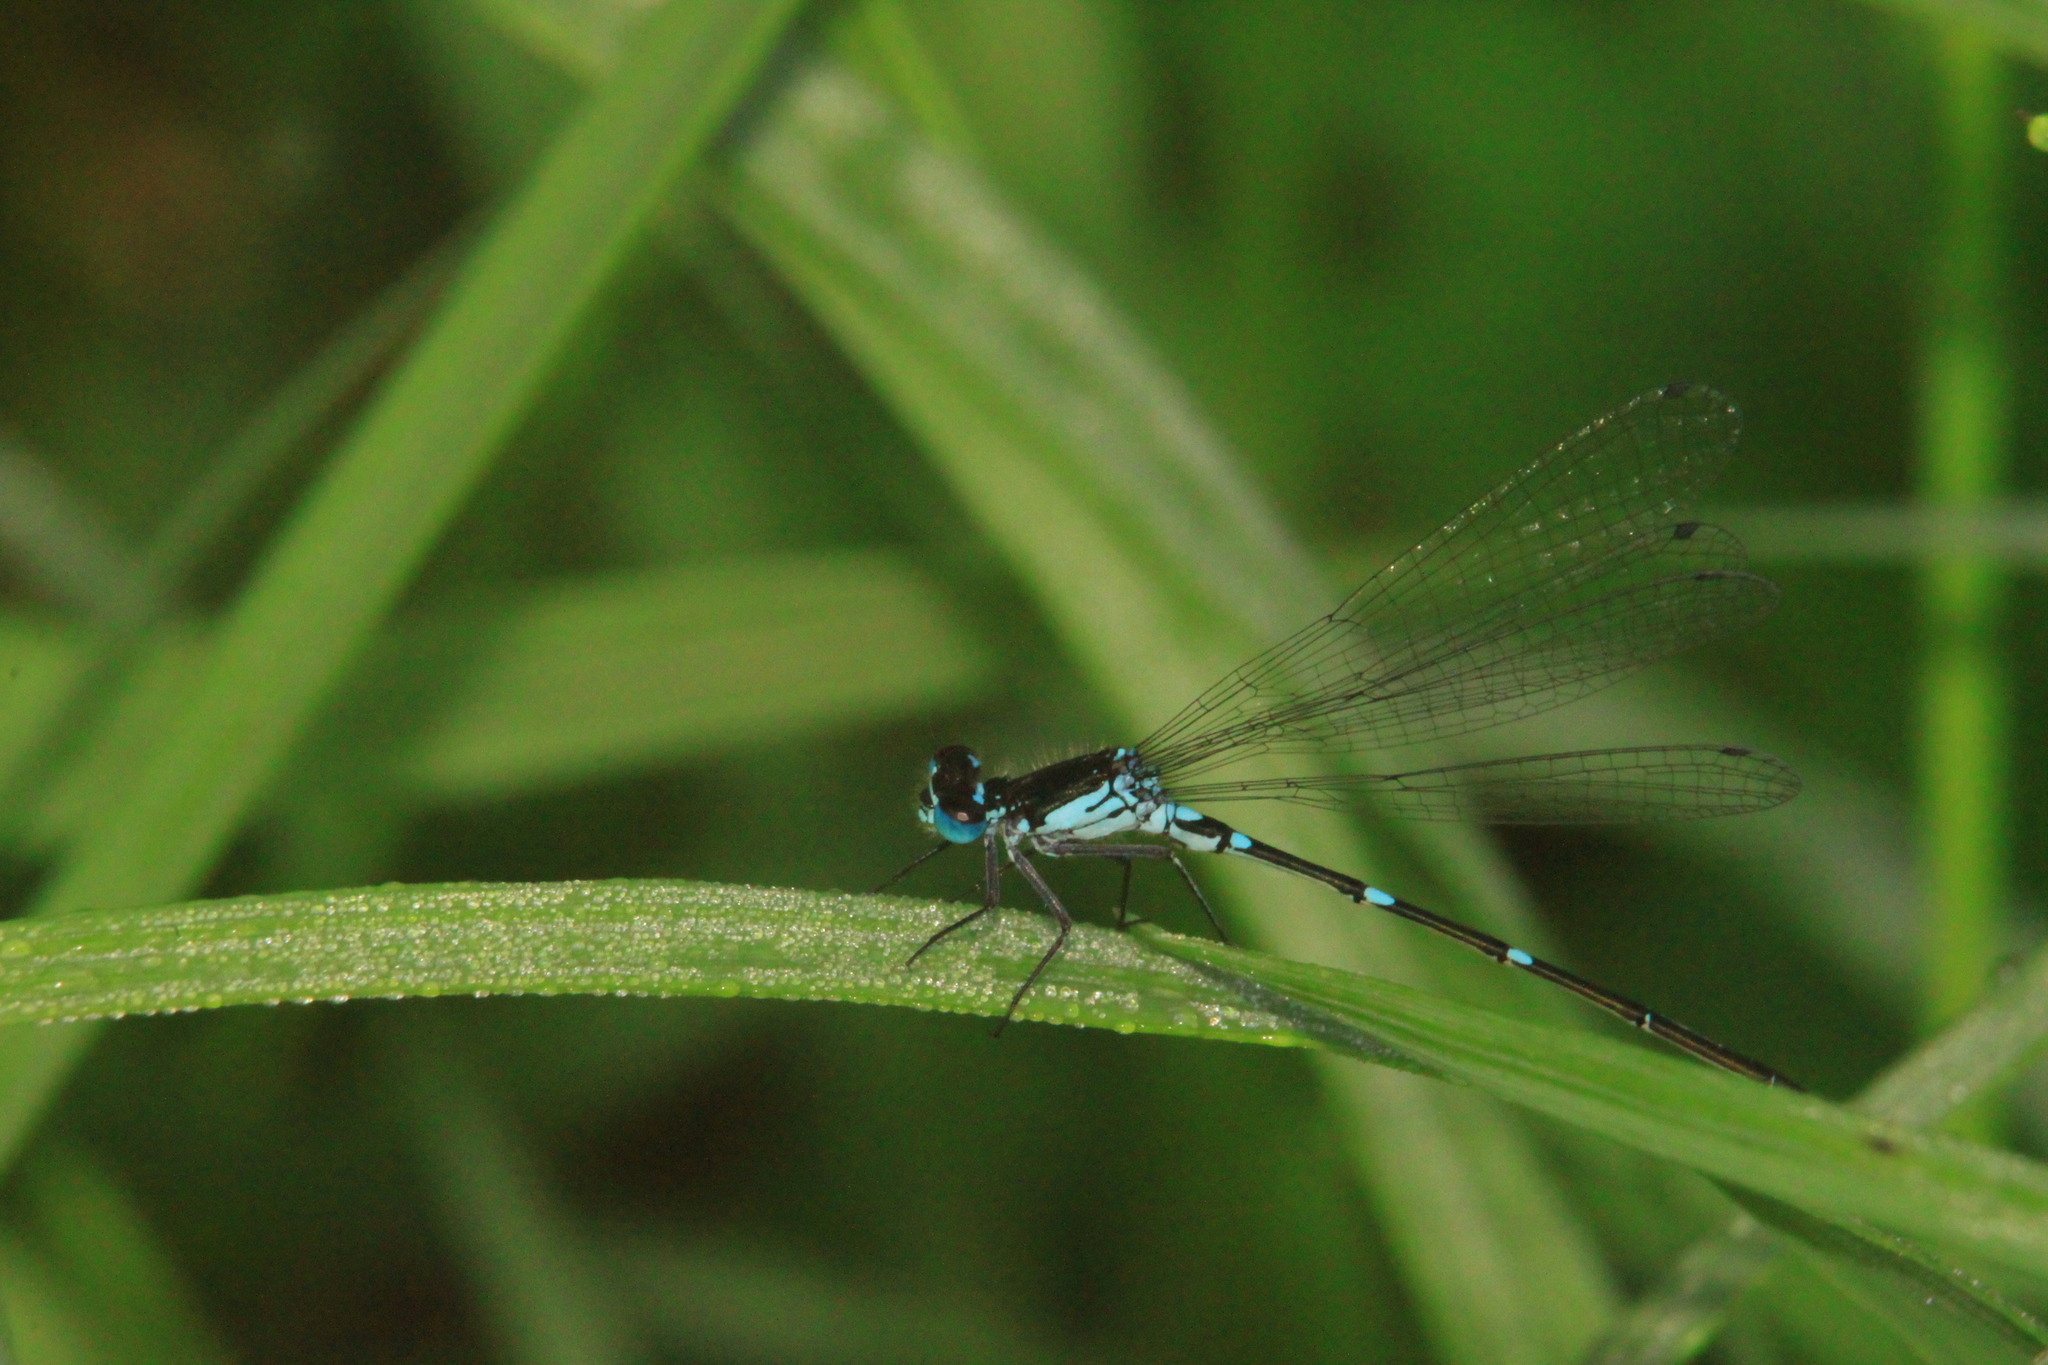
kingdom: Animalia
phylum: Arthropoda
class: Insecta
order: Odonata
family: Coenagrionidae
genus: Coenagrion
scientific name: Coenagrion pulchellum
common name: Variable bluet
